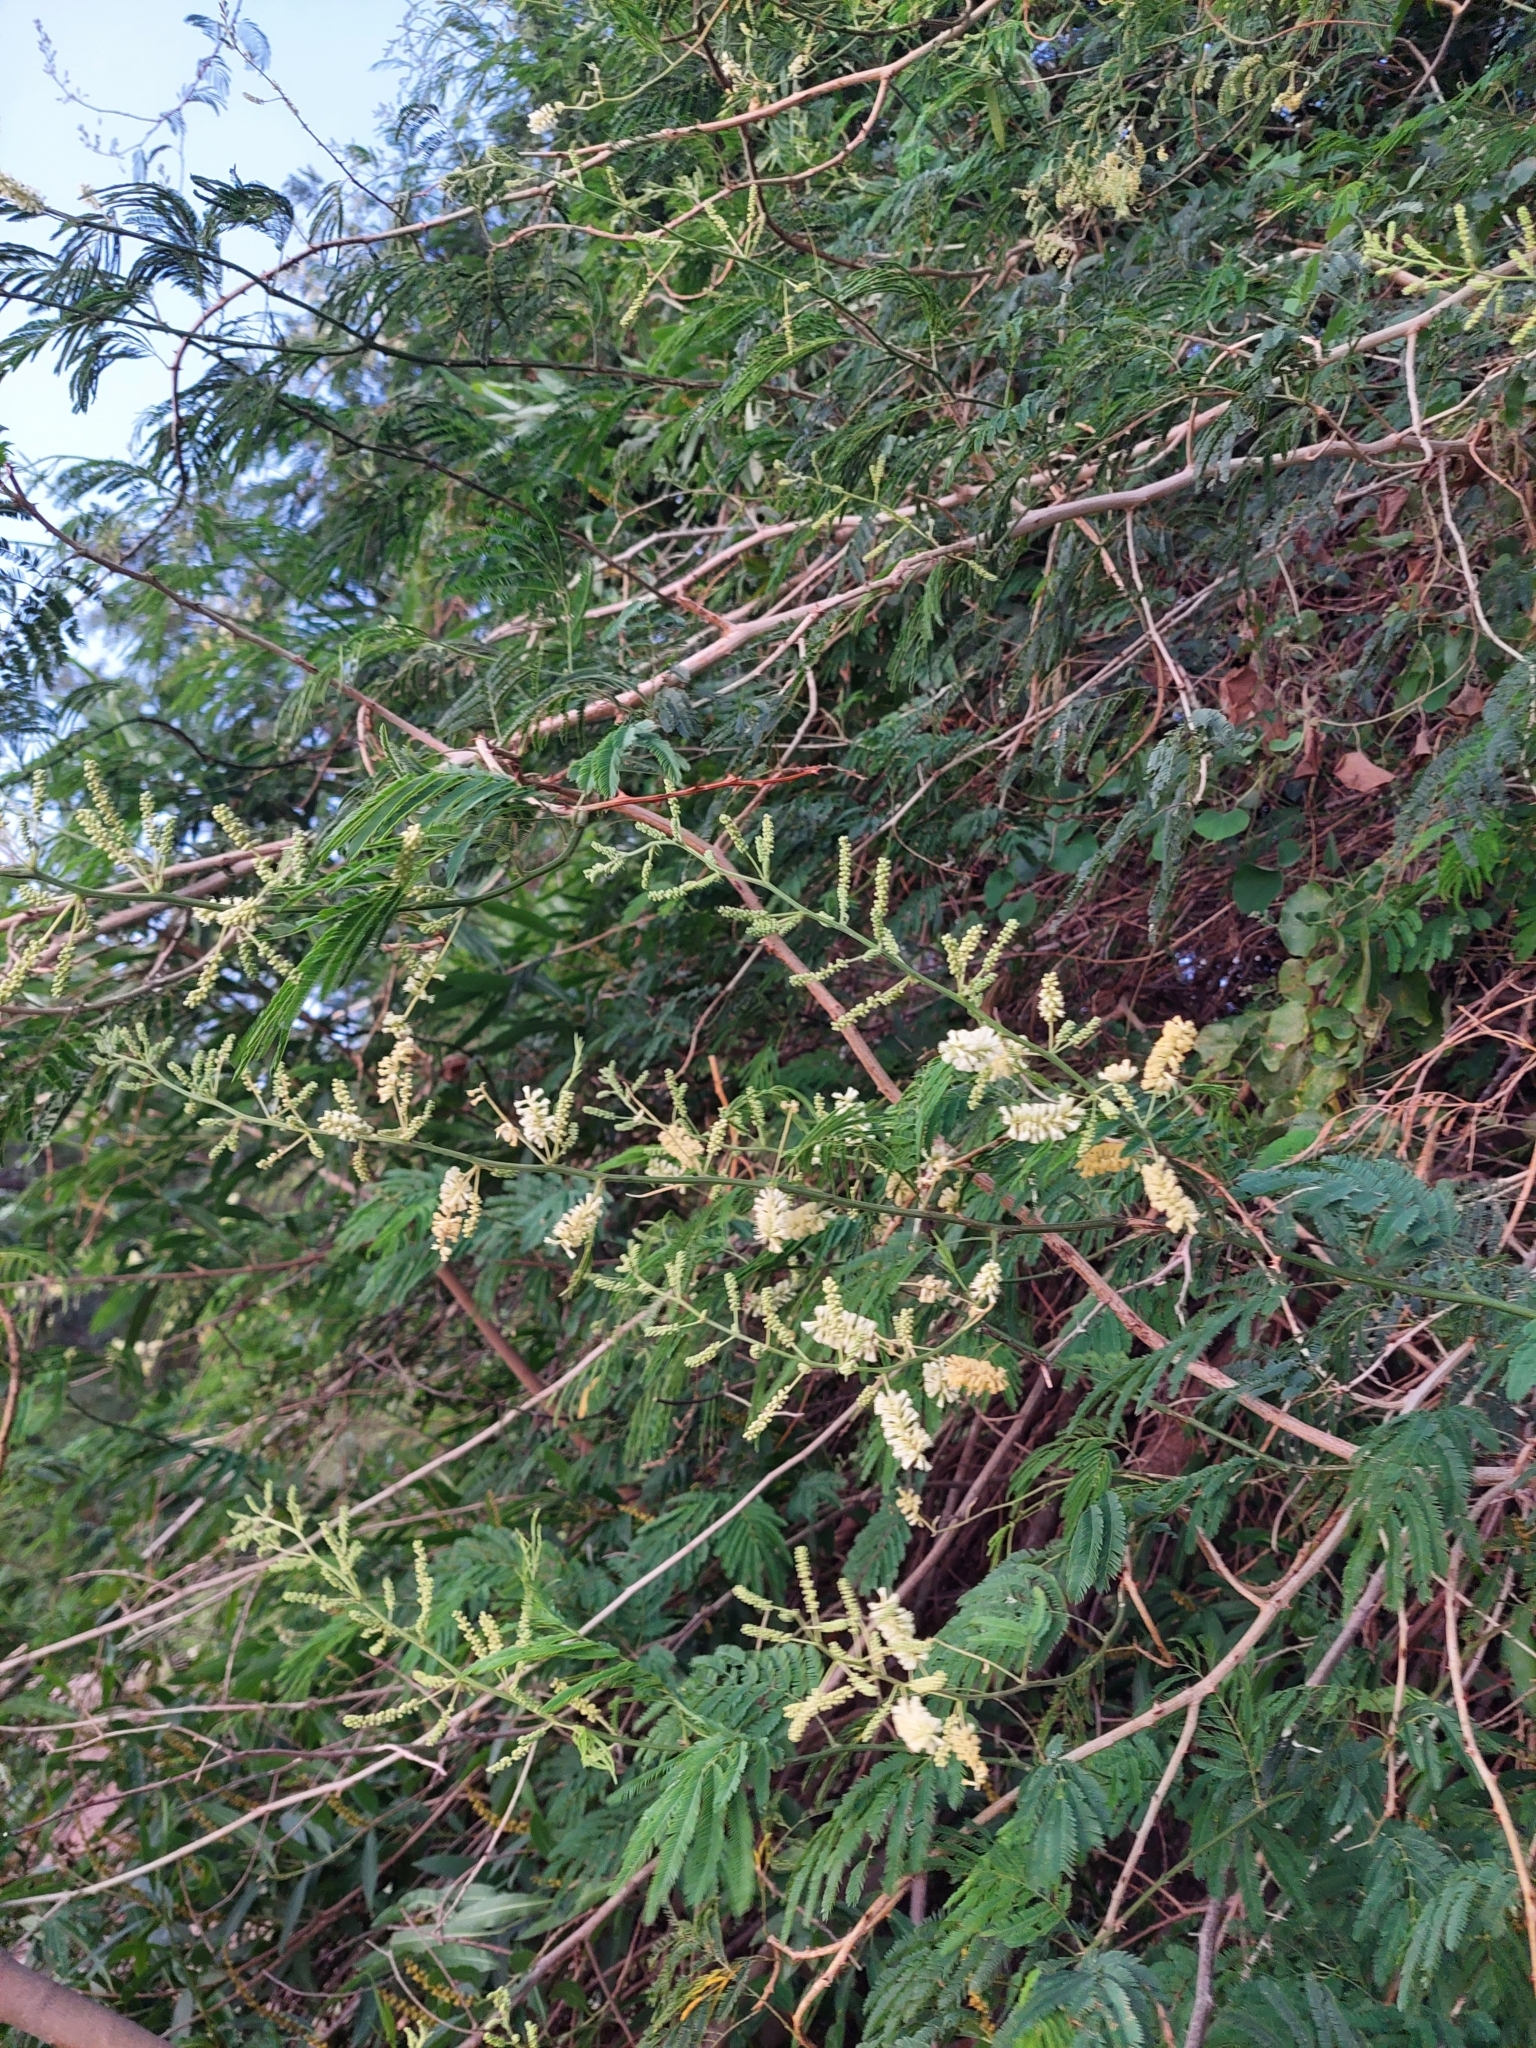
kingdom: Plantae
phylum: Tracheophyta
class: Magnoliopsida
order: Fabales
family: Fabaceae
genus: Senegalia
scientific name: Senegalia bonariensis
